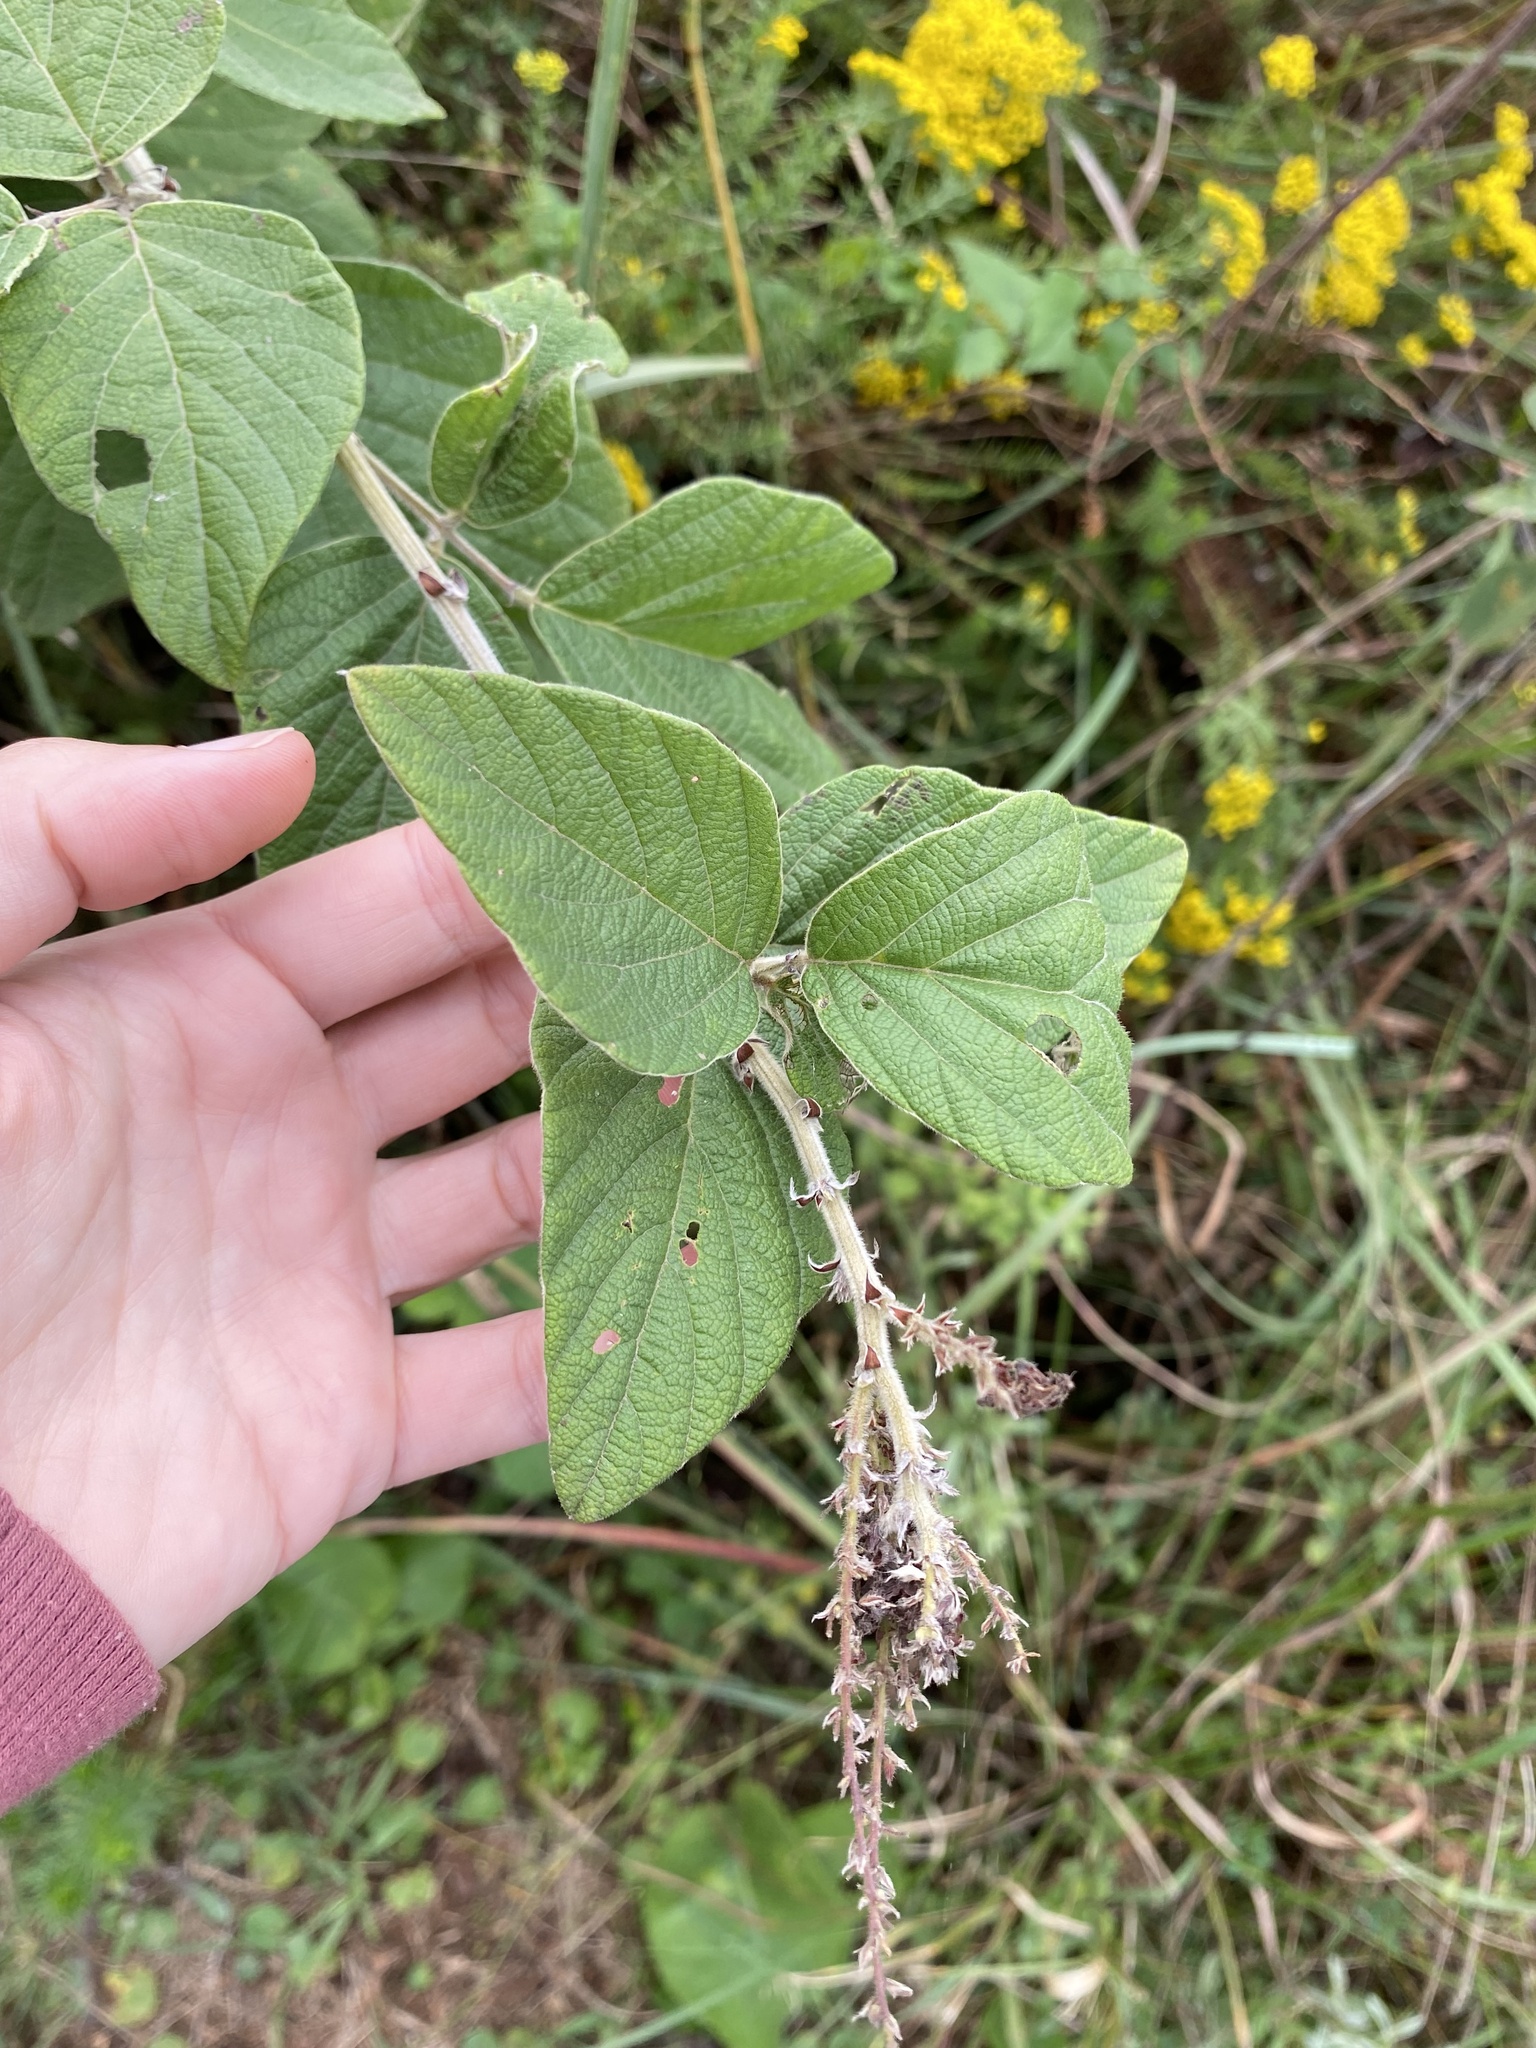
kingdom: Plantae
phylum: Tracheophyta
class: Magnoliopsida
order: Fabales
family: Fabaceae
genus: Pseudarthria
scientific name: Pseudarthria hookeri
